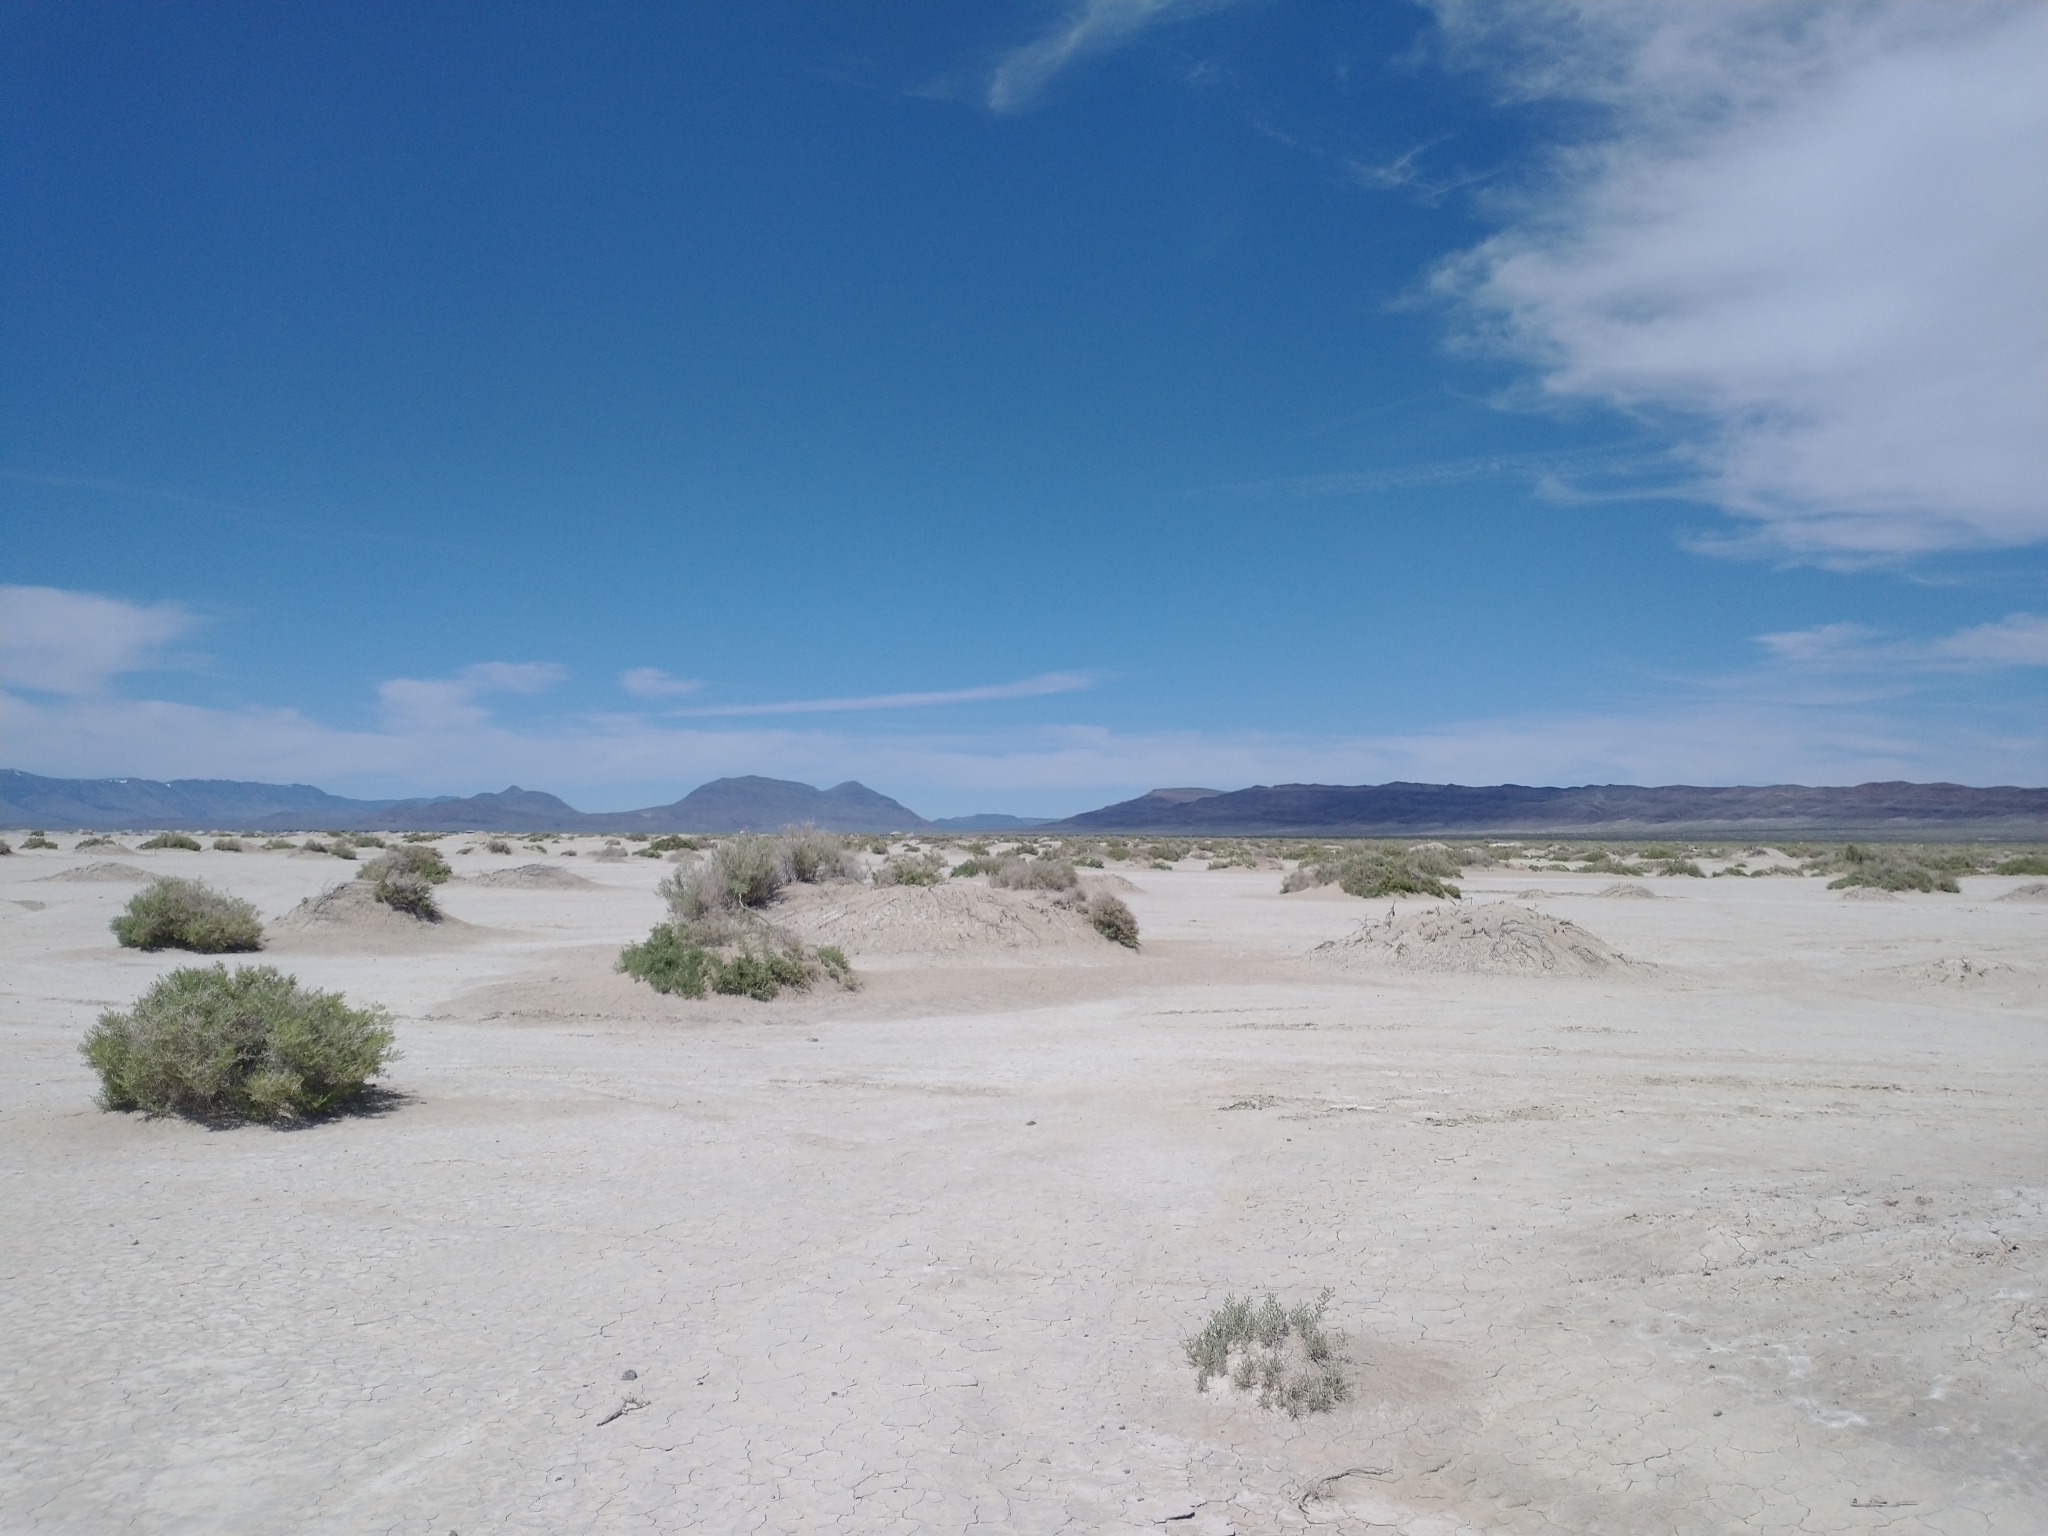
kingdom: Plantae
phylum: Tracheophyta
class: Magnoliopsida
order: Caryophyllales
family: Sarcobataceae
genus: Sarcobatus
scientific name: Sarcobatus vermiculatus
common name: Greasewood
